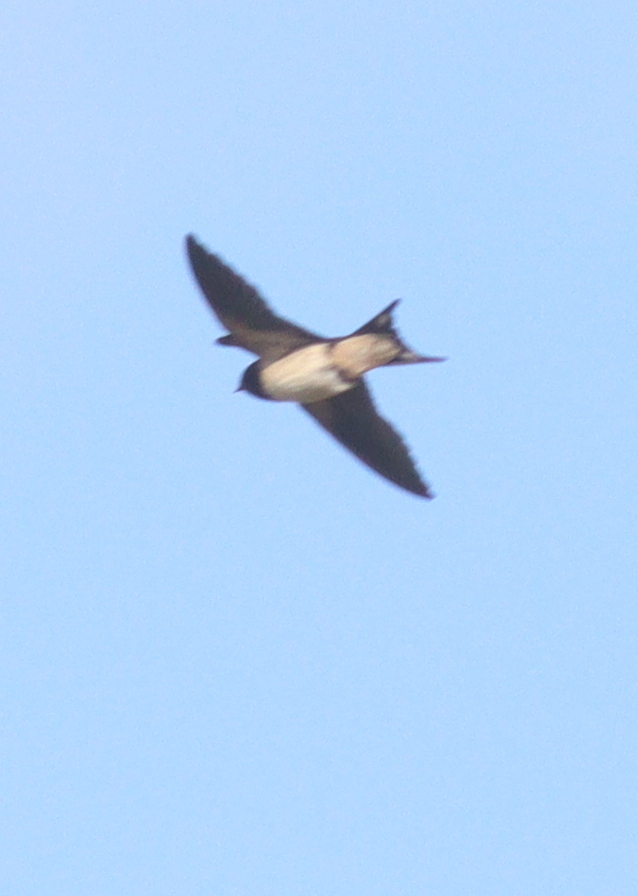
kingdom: Animalia
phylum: Chordata
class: Aves
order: Passeriformes
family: Hirundinidae
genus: Hirundo
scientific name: Hirundo rustica
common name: Barn swallow
